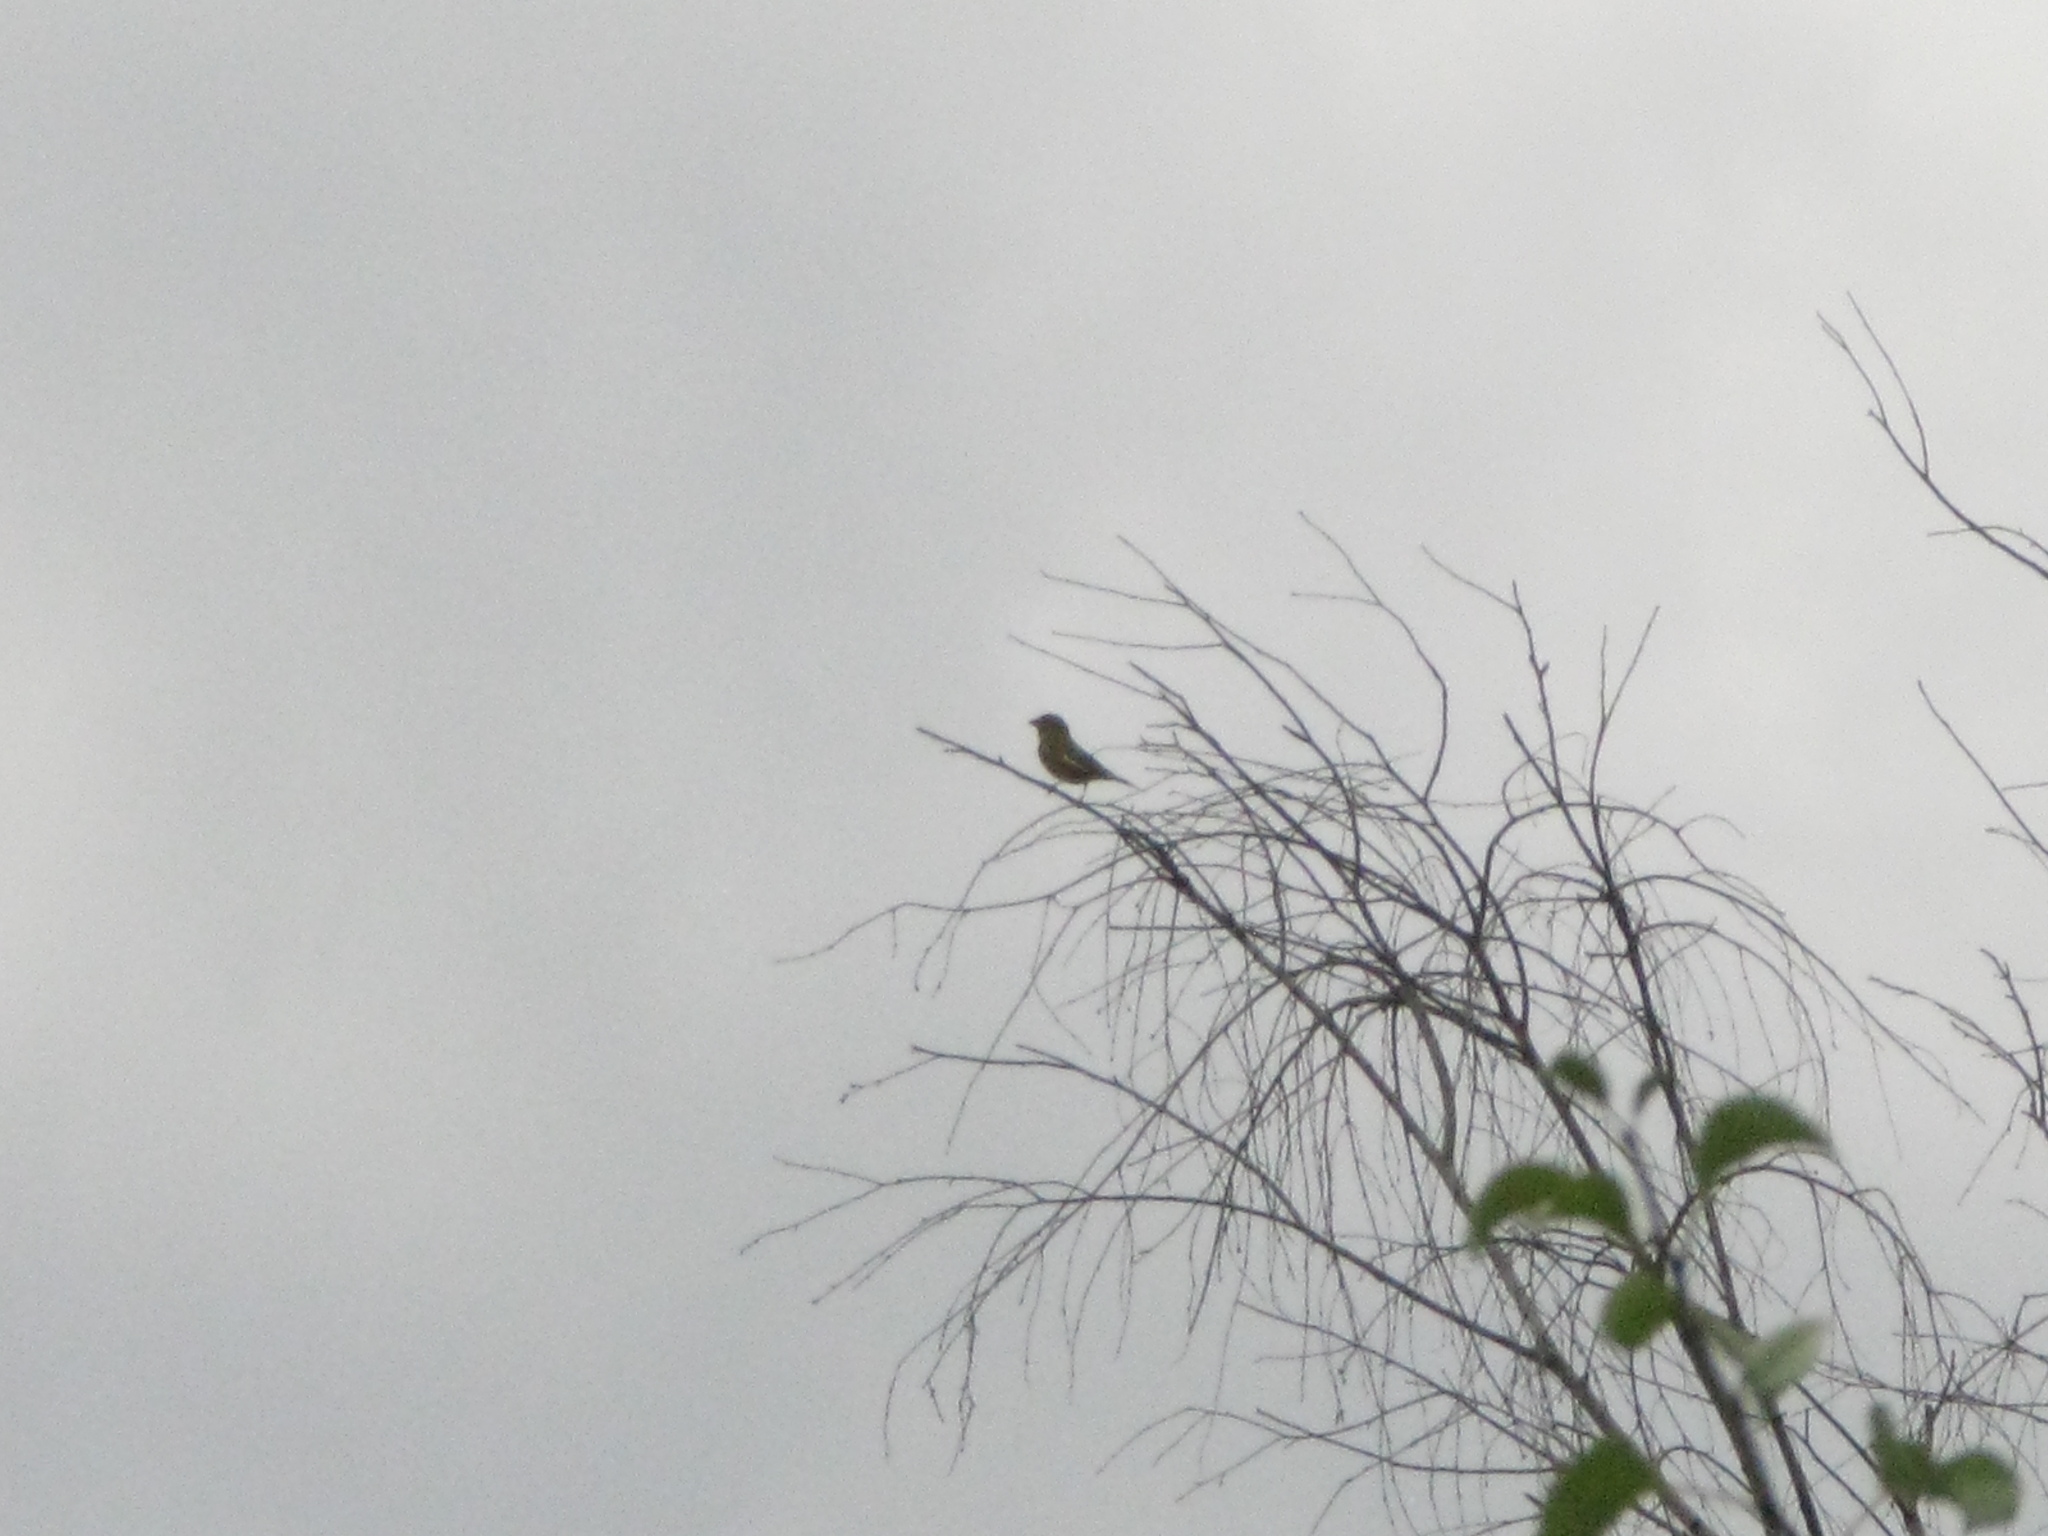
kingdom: Plantae
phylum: Tracheophyta
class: Liliopsida
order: Poales
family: Poaceae
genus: Chloris
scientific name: Chloris chloris
